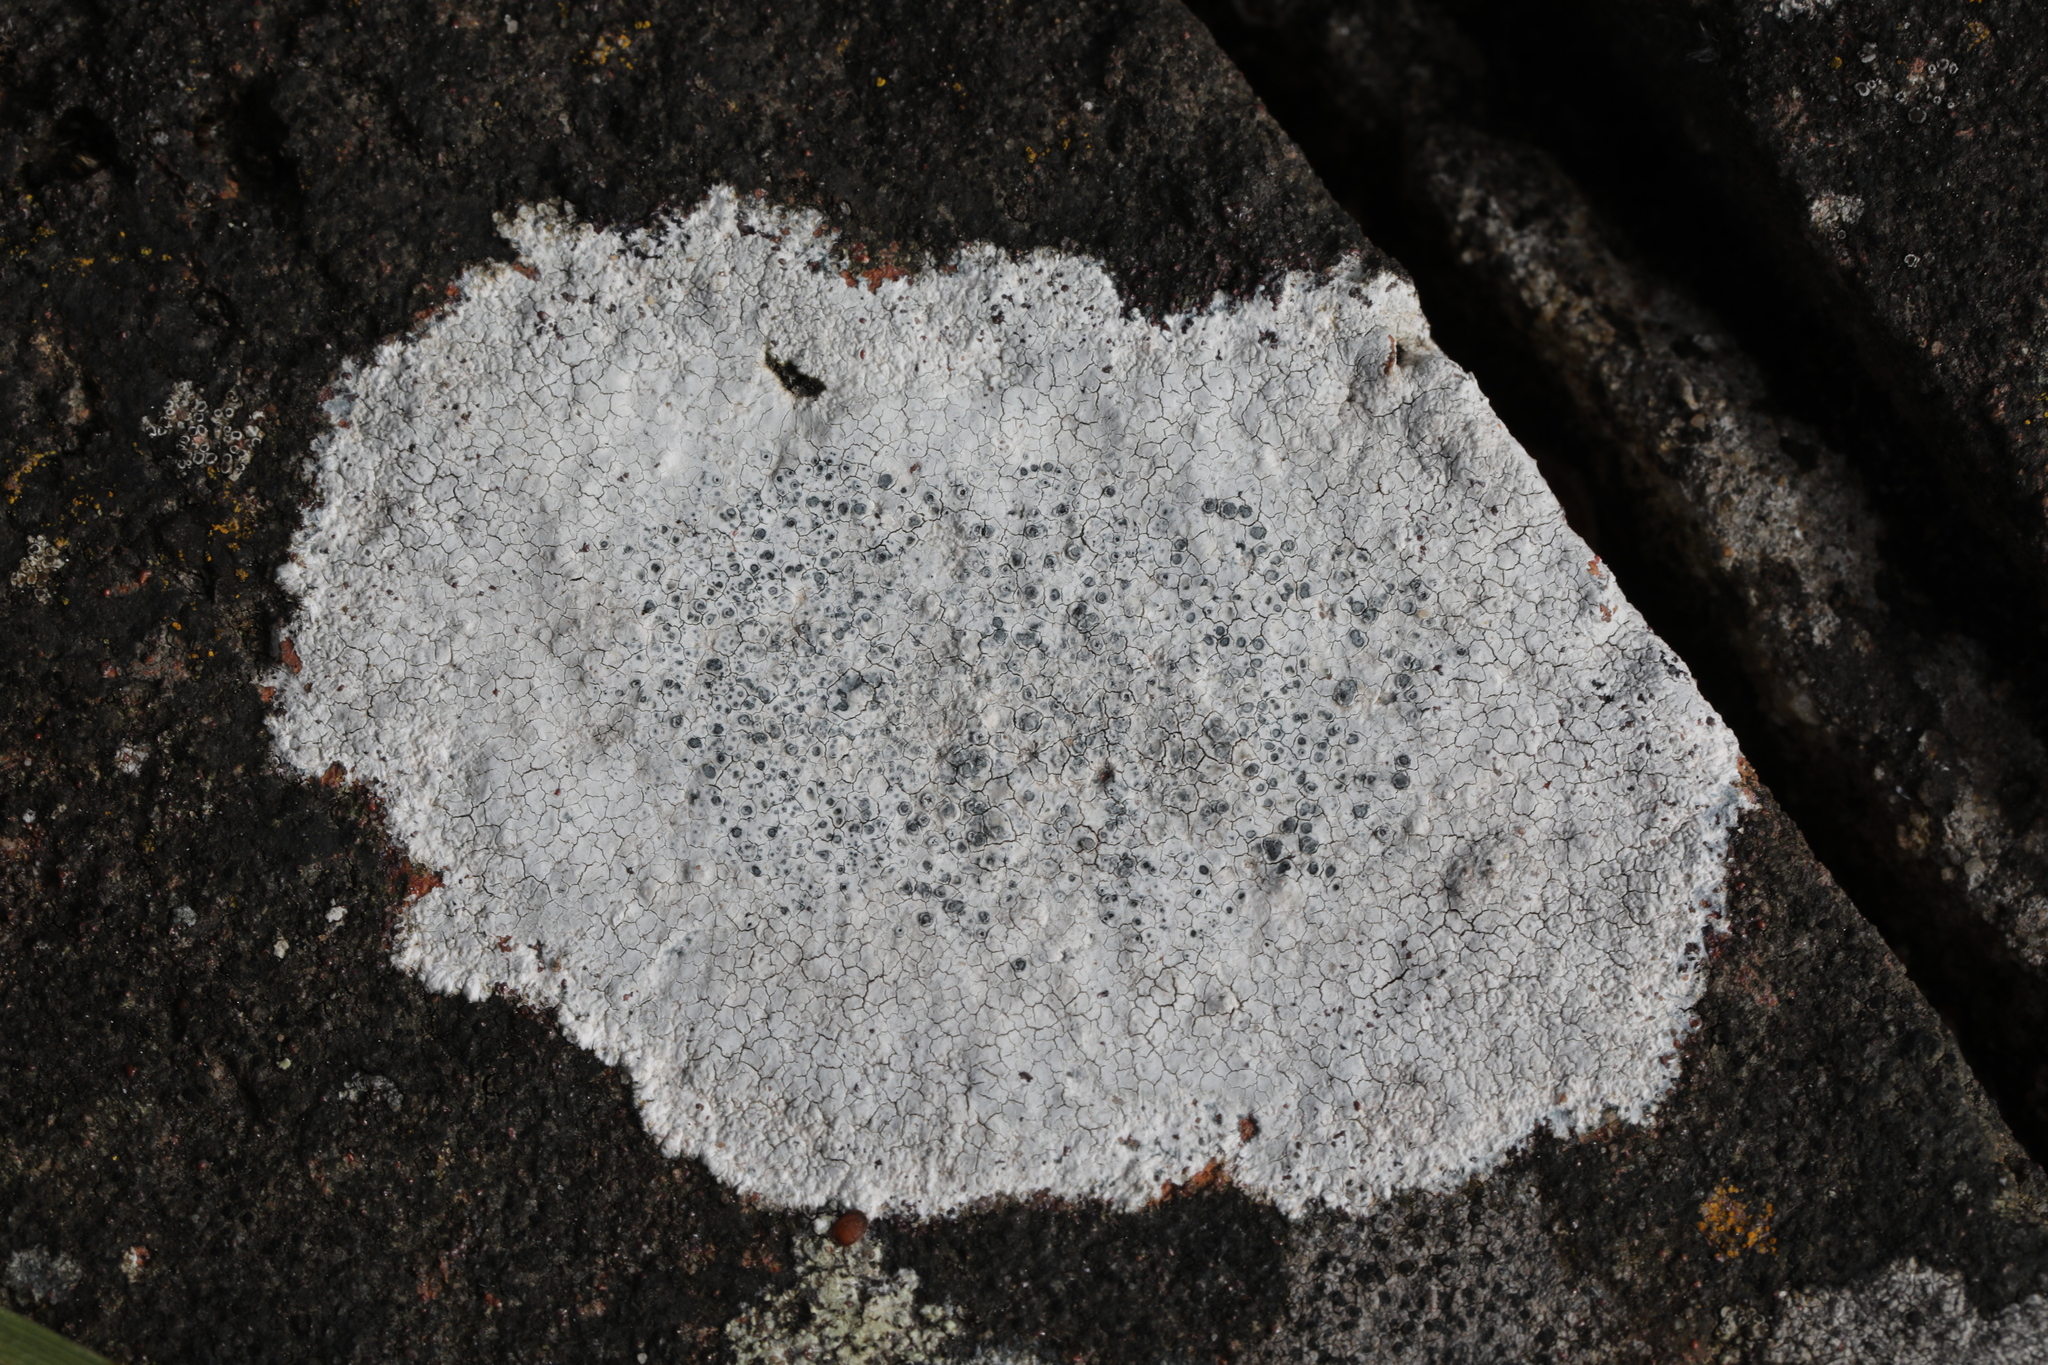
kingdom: Fungi
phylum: Ascomycota
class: Lecanoromycetes
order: Lecanorales
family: Lecanoraceae
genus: Glaucomaria
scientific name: Glaucomaria rupicola
